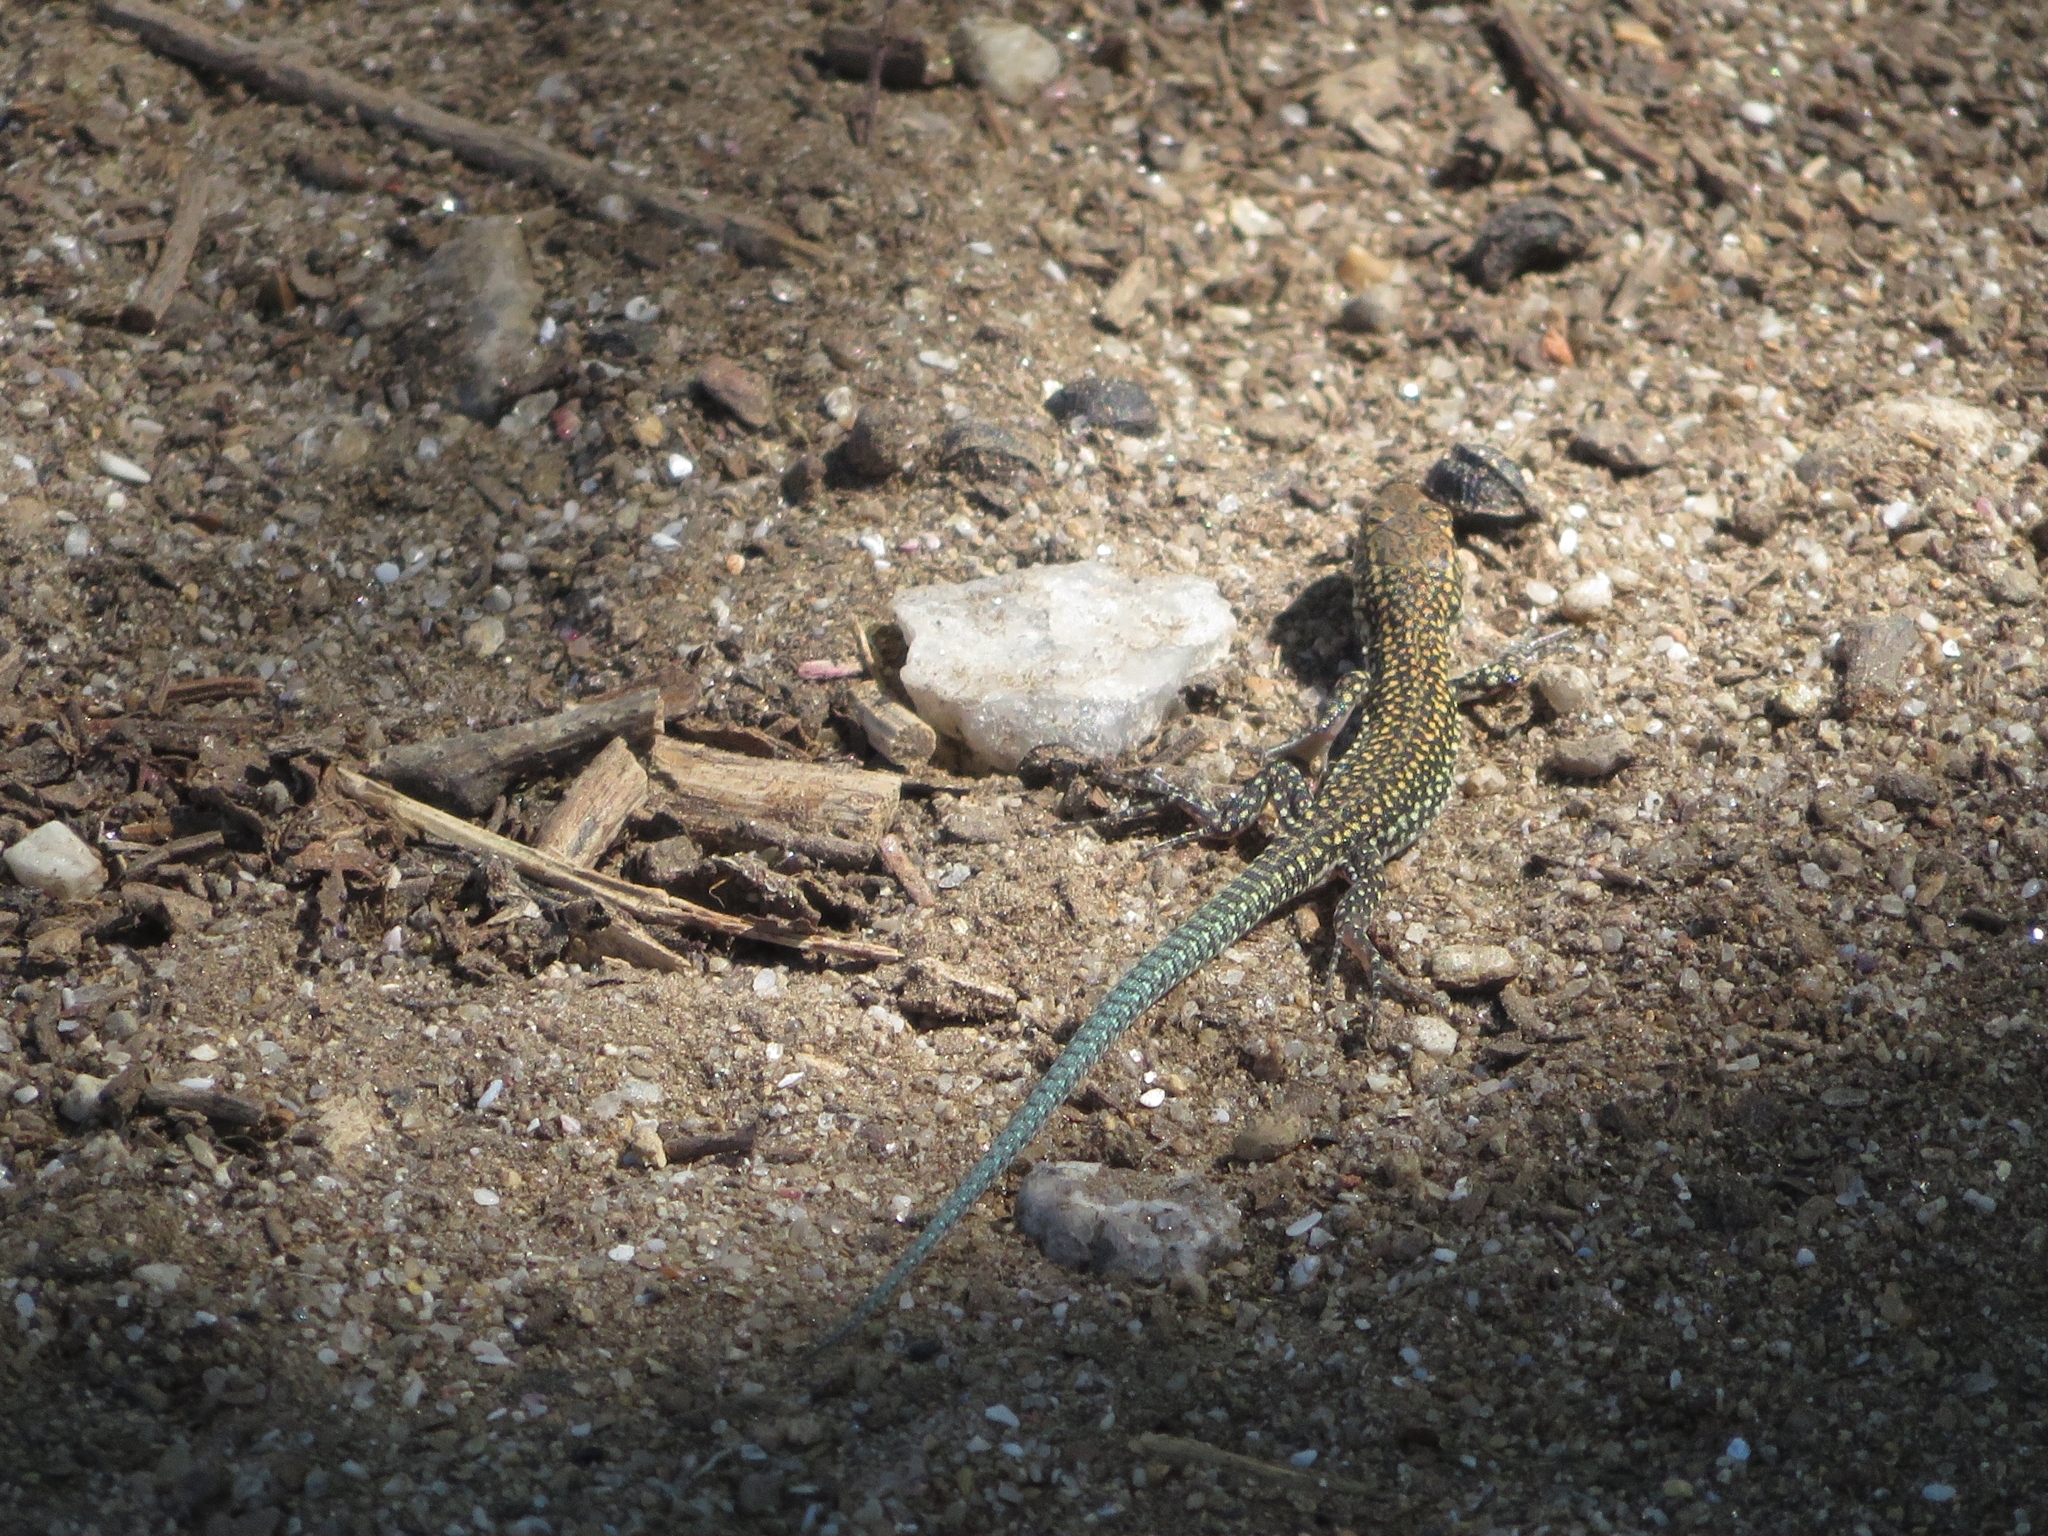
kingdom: Animalia
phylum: Chordata
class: Squamata
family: Lacertidae
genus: Podarcis
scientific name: Podarcis
